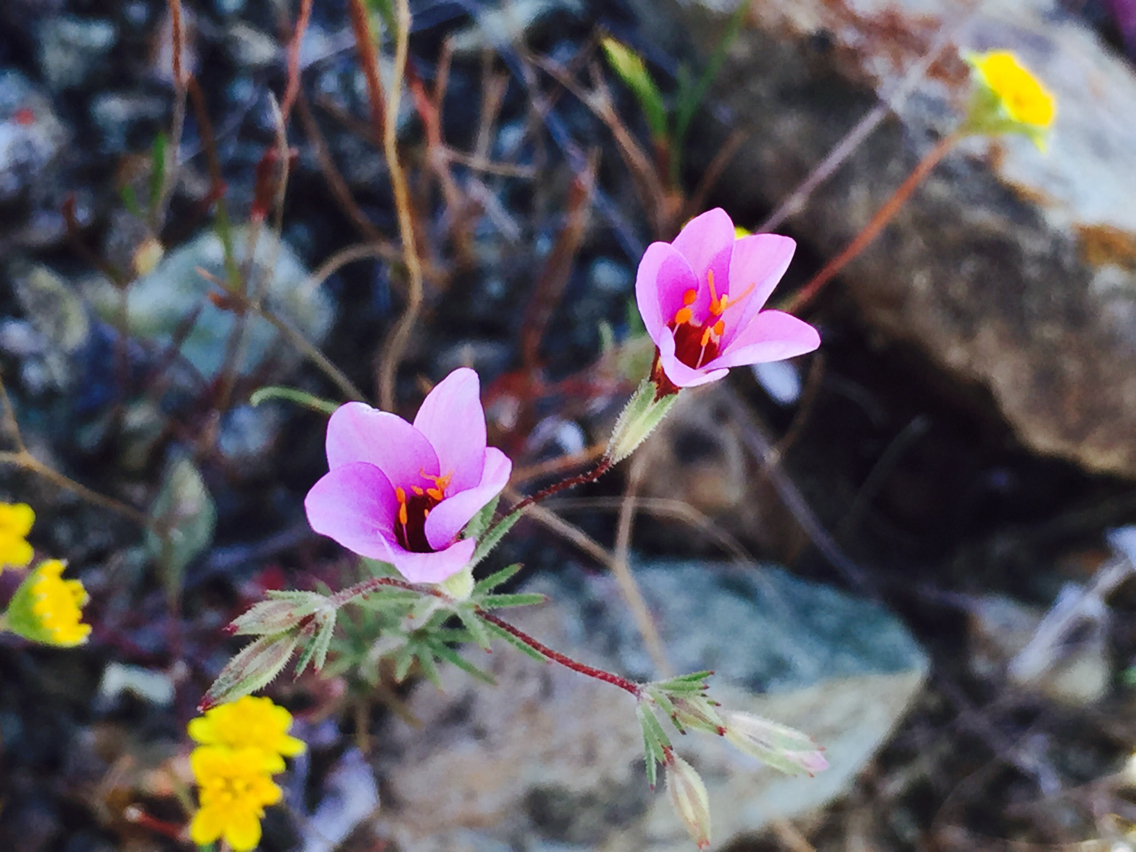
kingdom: Plantae
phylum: Tracheophyta
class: Magnoliopsida
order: Ericales
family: Polemoniaceae
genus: Leptosiphon
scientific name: Leptosiphon ambiguus
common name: Serpentine linanthus
